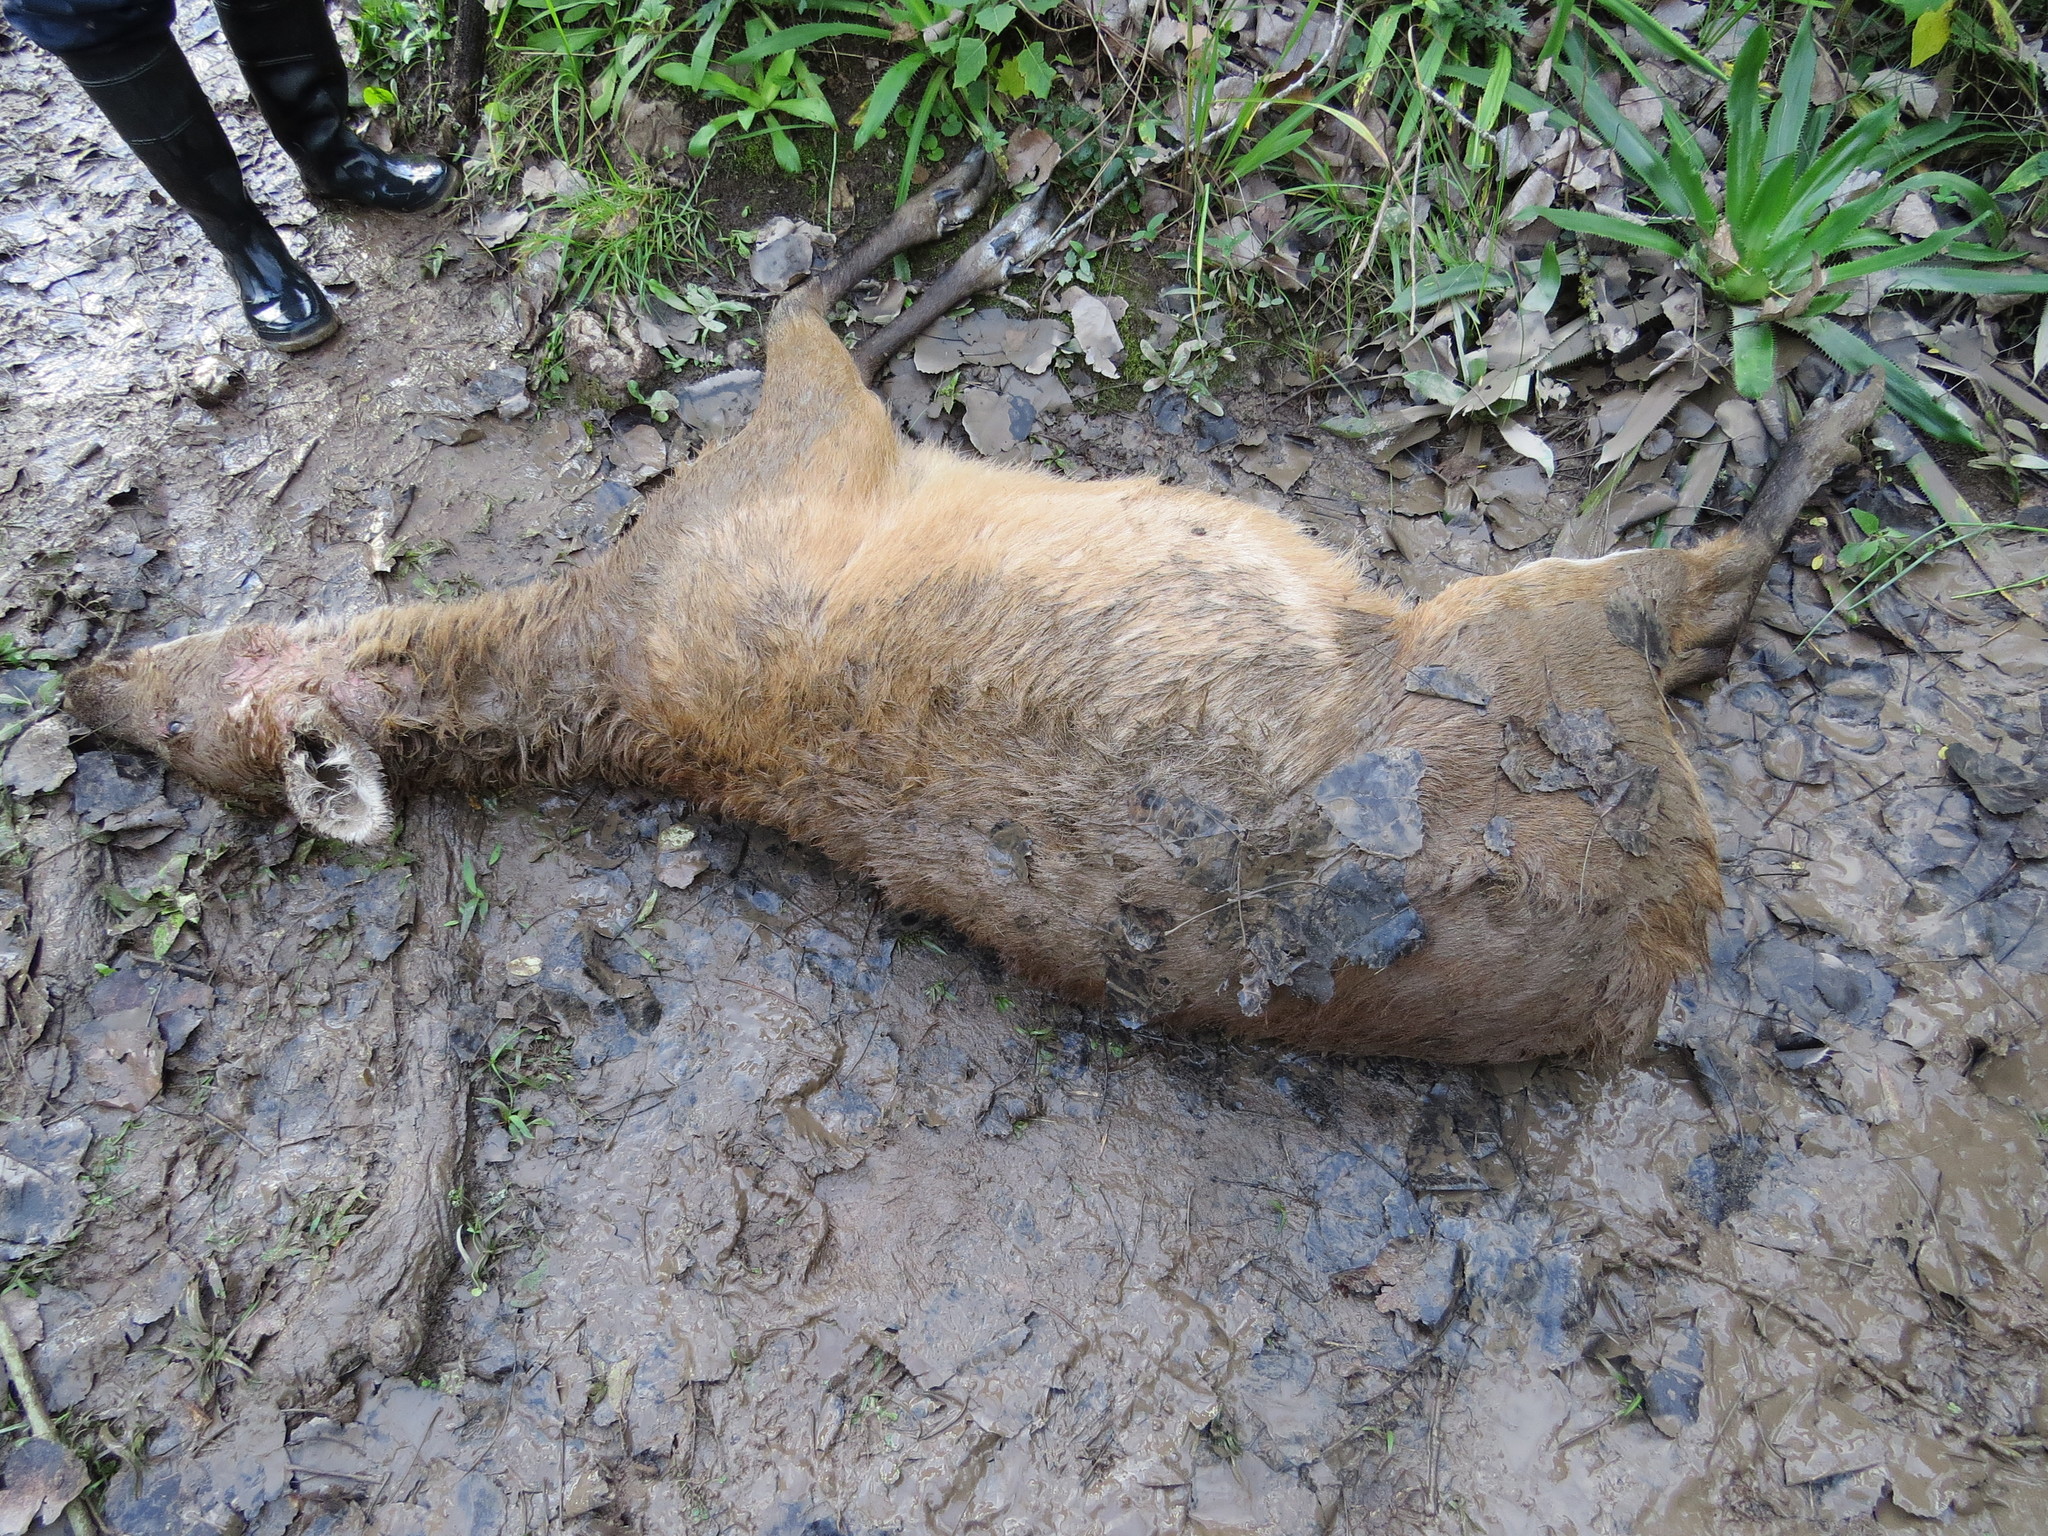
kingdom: Animalia
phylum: Chordata
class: Mammalia
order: Artiodactyla
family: Cervidae
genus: Blastocerus
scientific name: Blastocerus dichotomus
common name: Marsh deer
